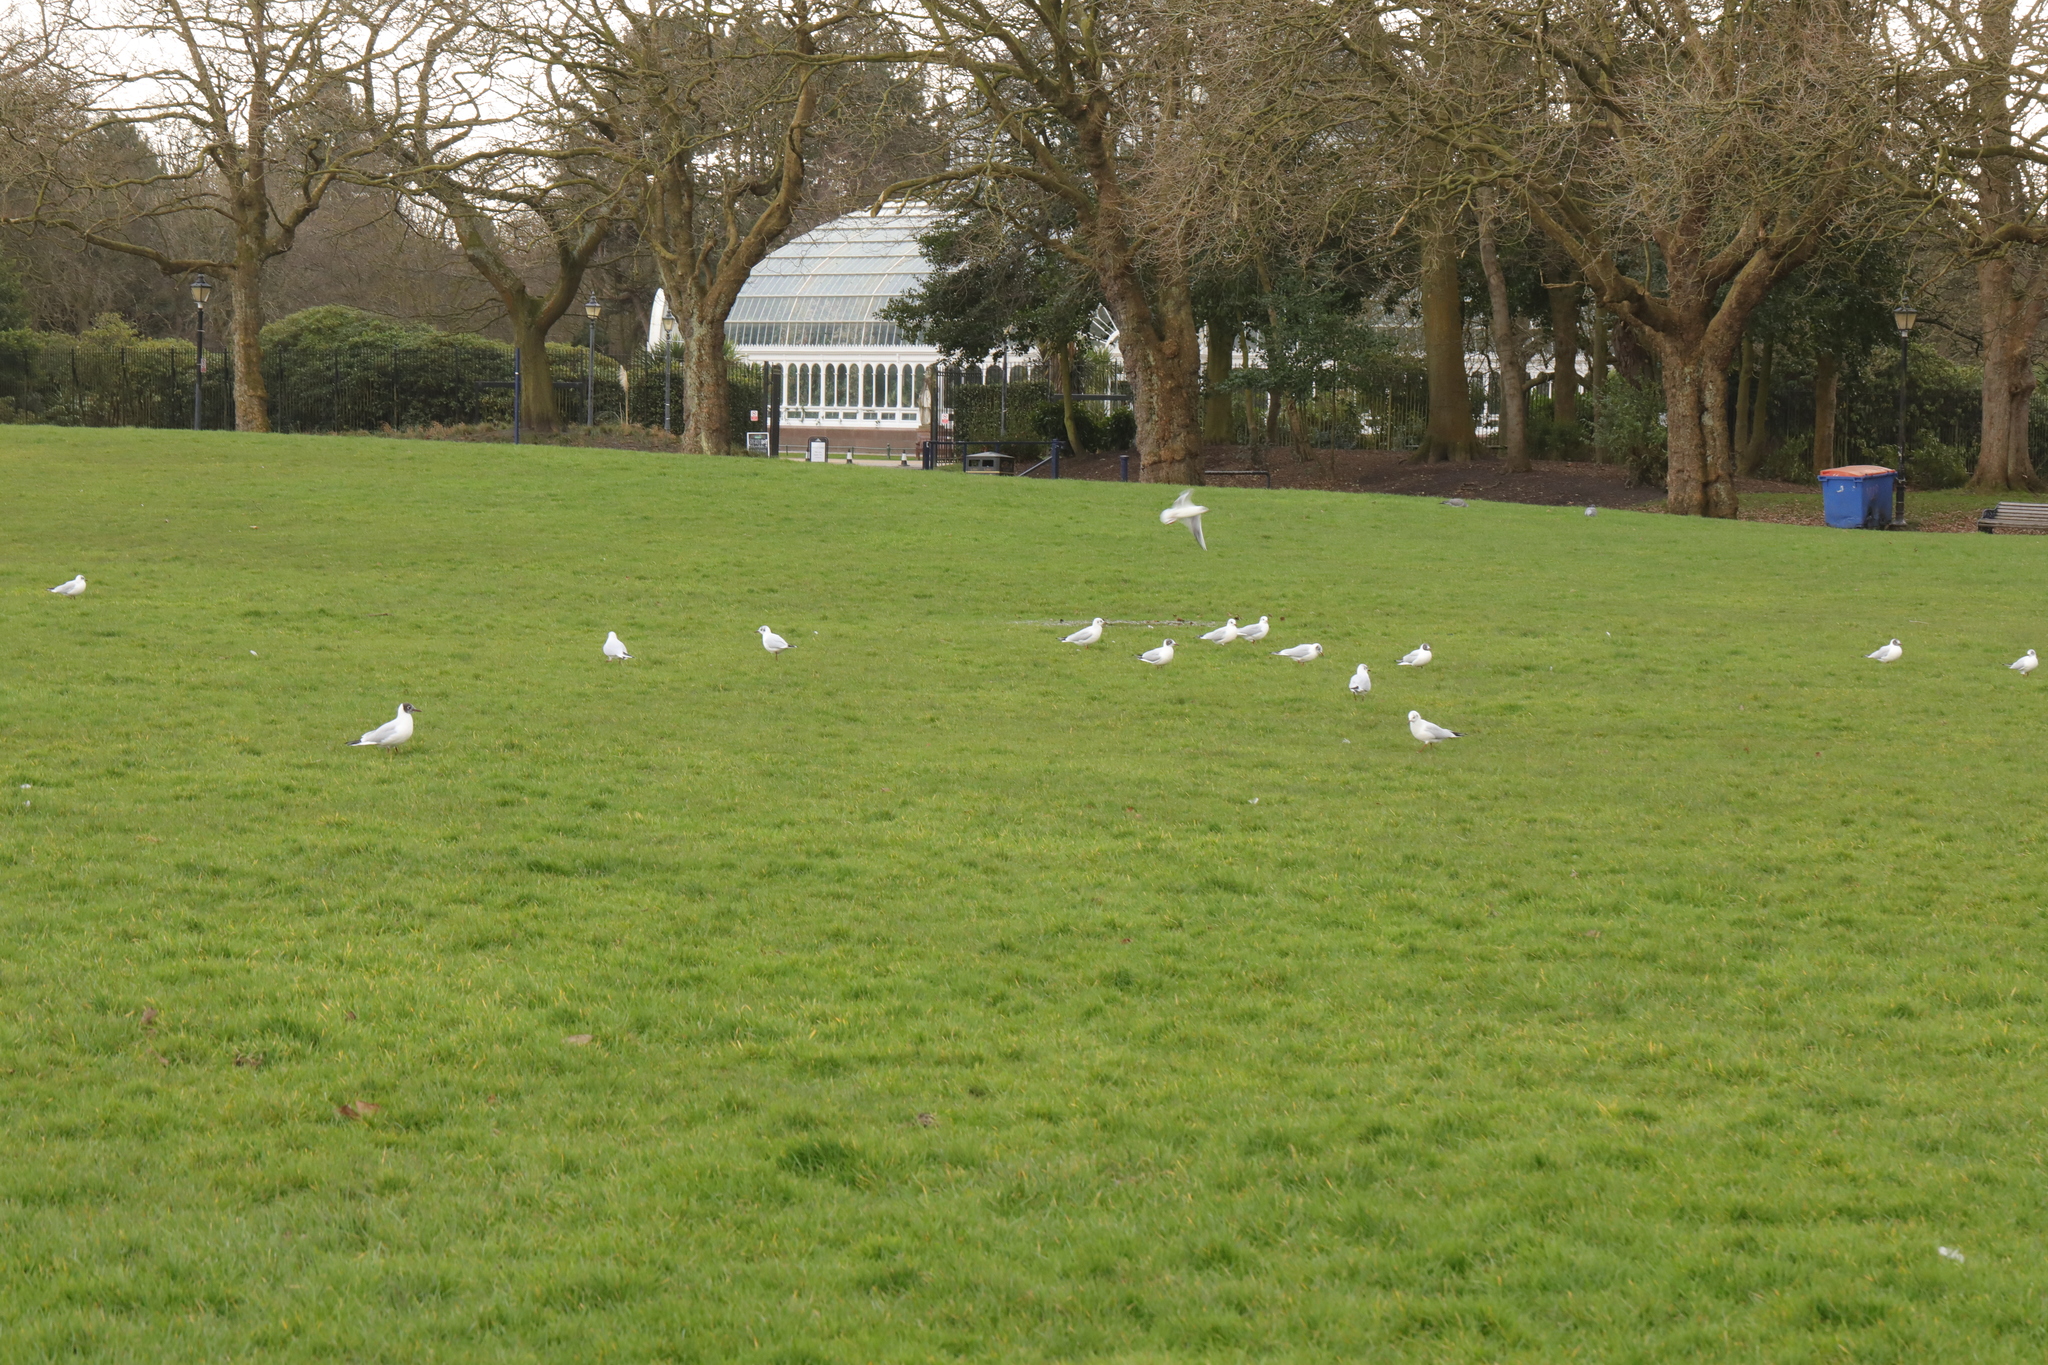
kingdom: Animalia
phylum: Chordata
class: Aves
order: Charadriiformes
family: Laridae
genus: Chroicocephalus
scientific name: Chroicocephalus ridibundus
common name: Black-headed gull
